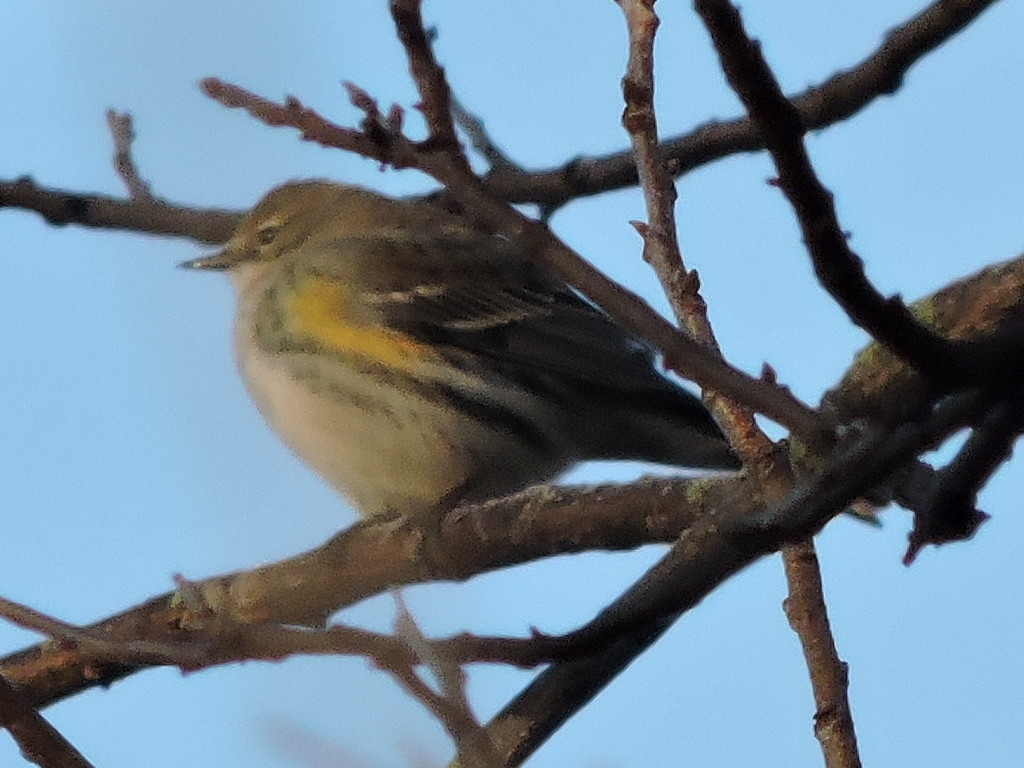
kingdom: Animalia
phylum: Chordata
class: Aves
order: Passeriformes
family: Parulidae
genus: Setophaga
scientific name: Setophaga coronata
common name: Myrtle warbler
